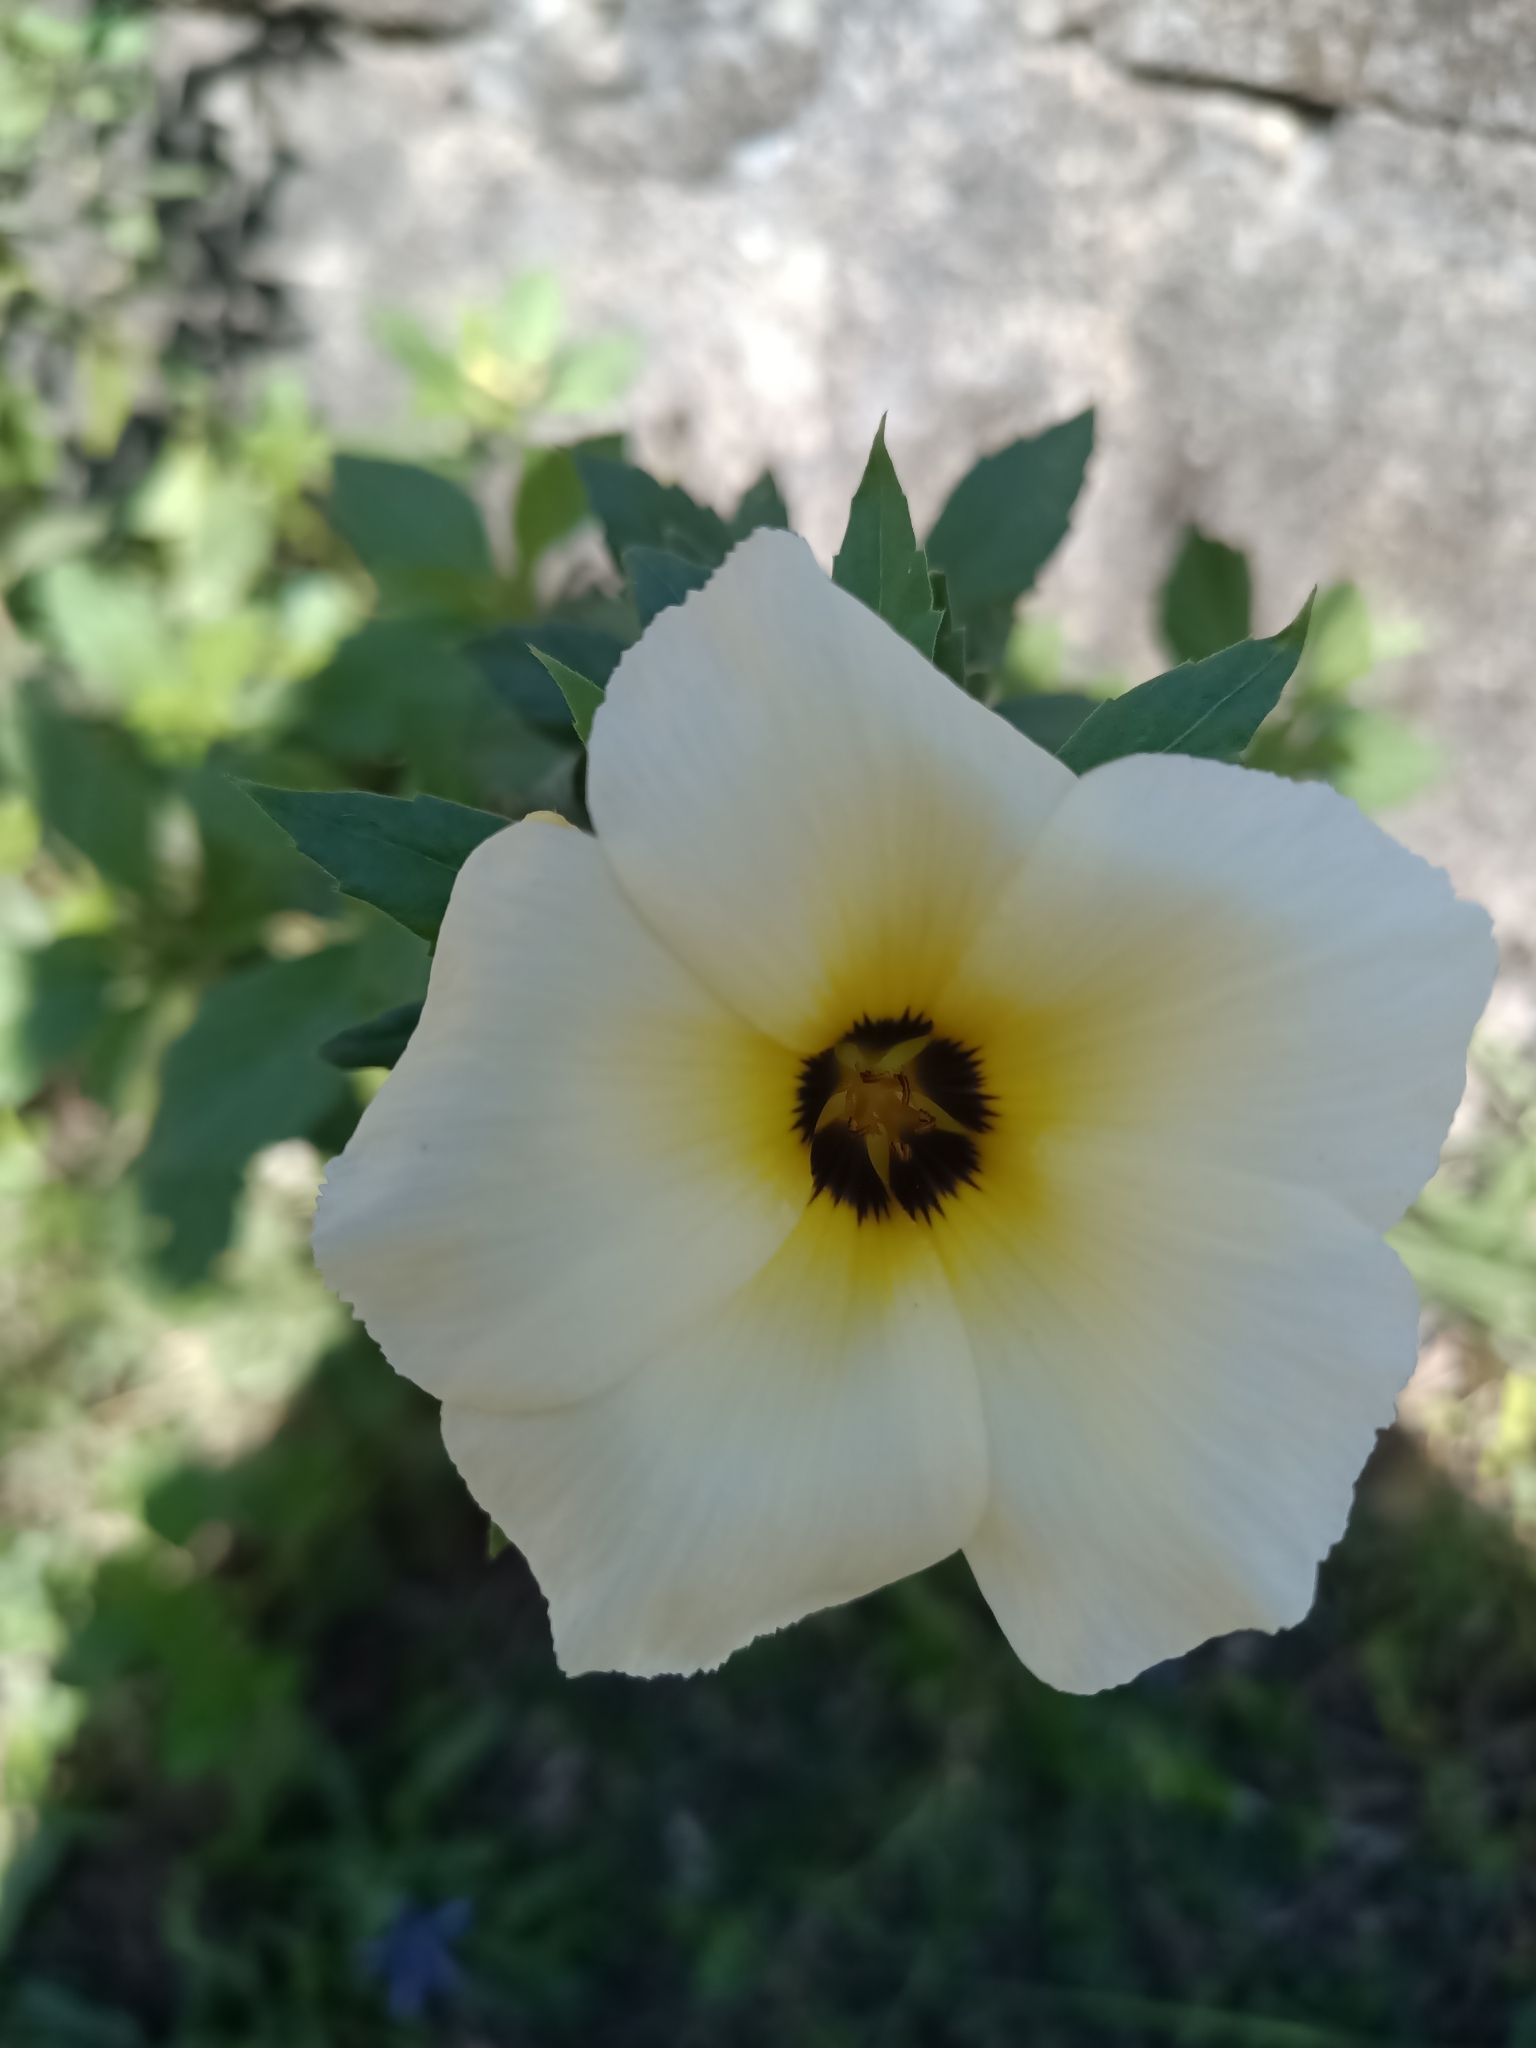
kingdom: Plantae
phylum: Tracheophyta
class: Magnoliopsida
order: Malpighiales
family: Turneraceae
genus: Turnera
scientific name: Turnera subulata
